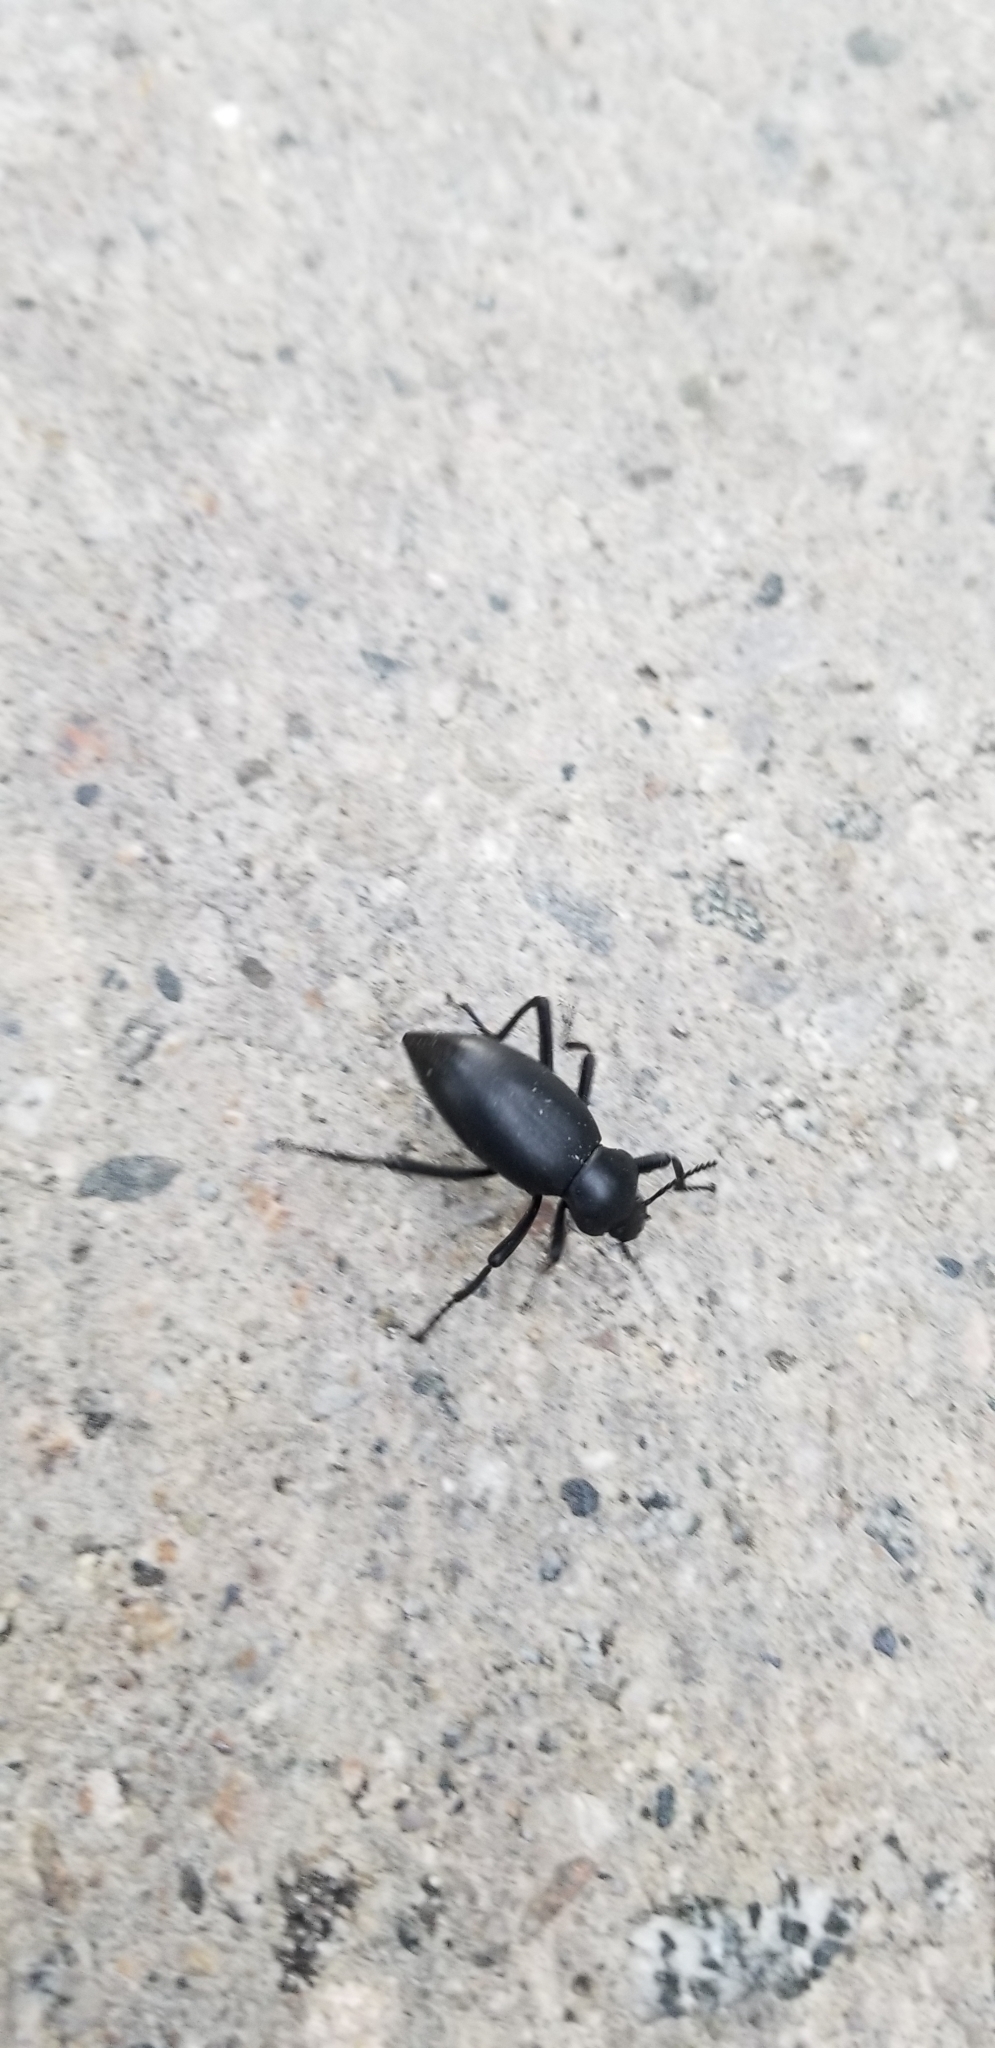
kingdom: Animalia
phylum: Arthropoda
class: Insecta
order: Coleoptera
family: Tenebrionidae
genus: Eleodes
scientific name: Eleodes dentipes
